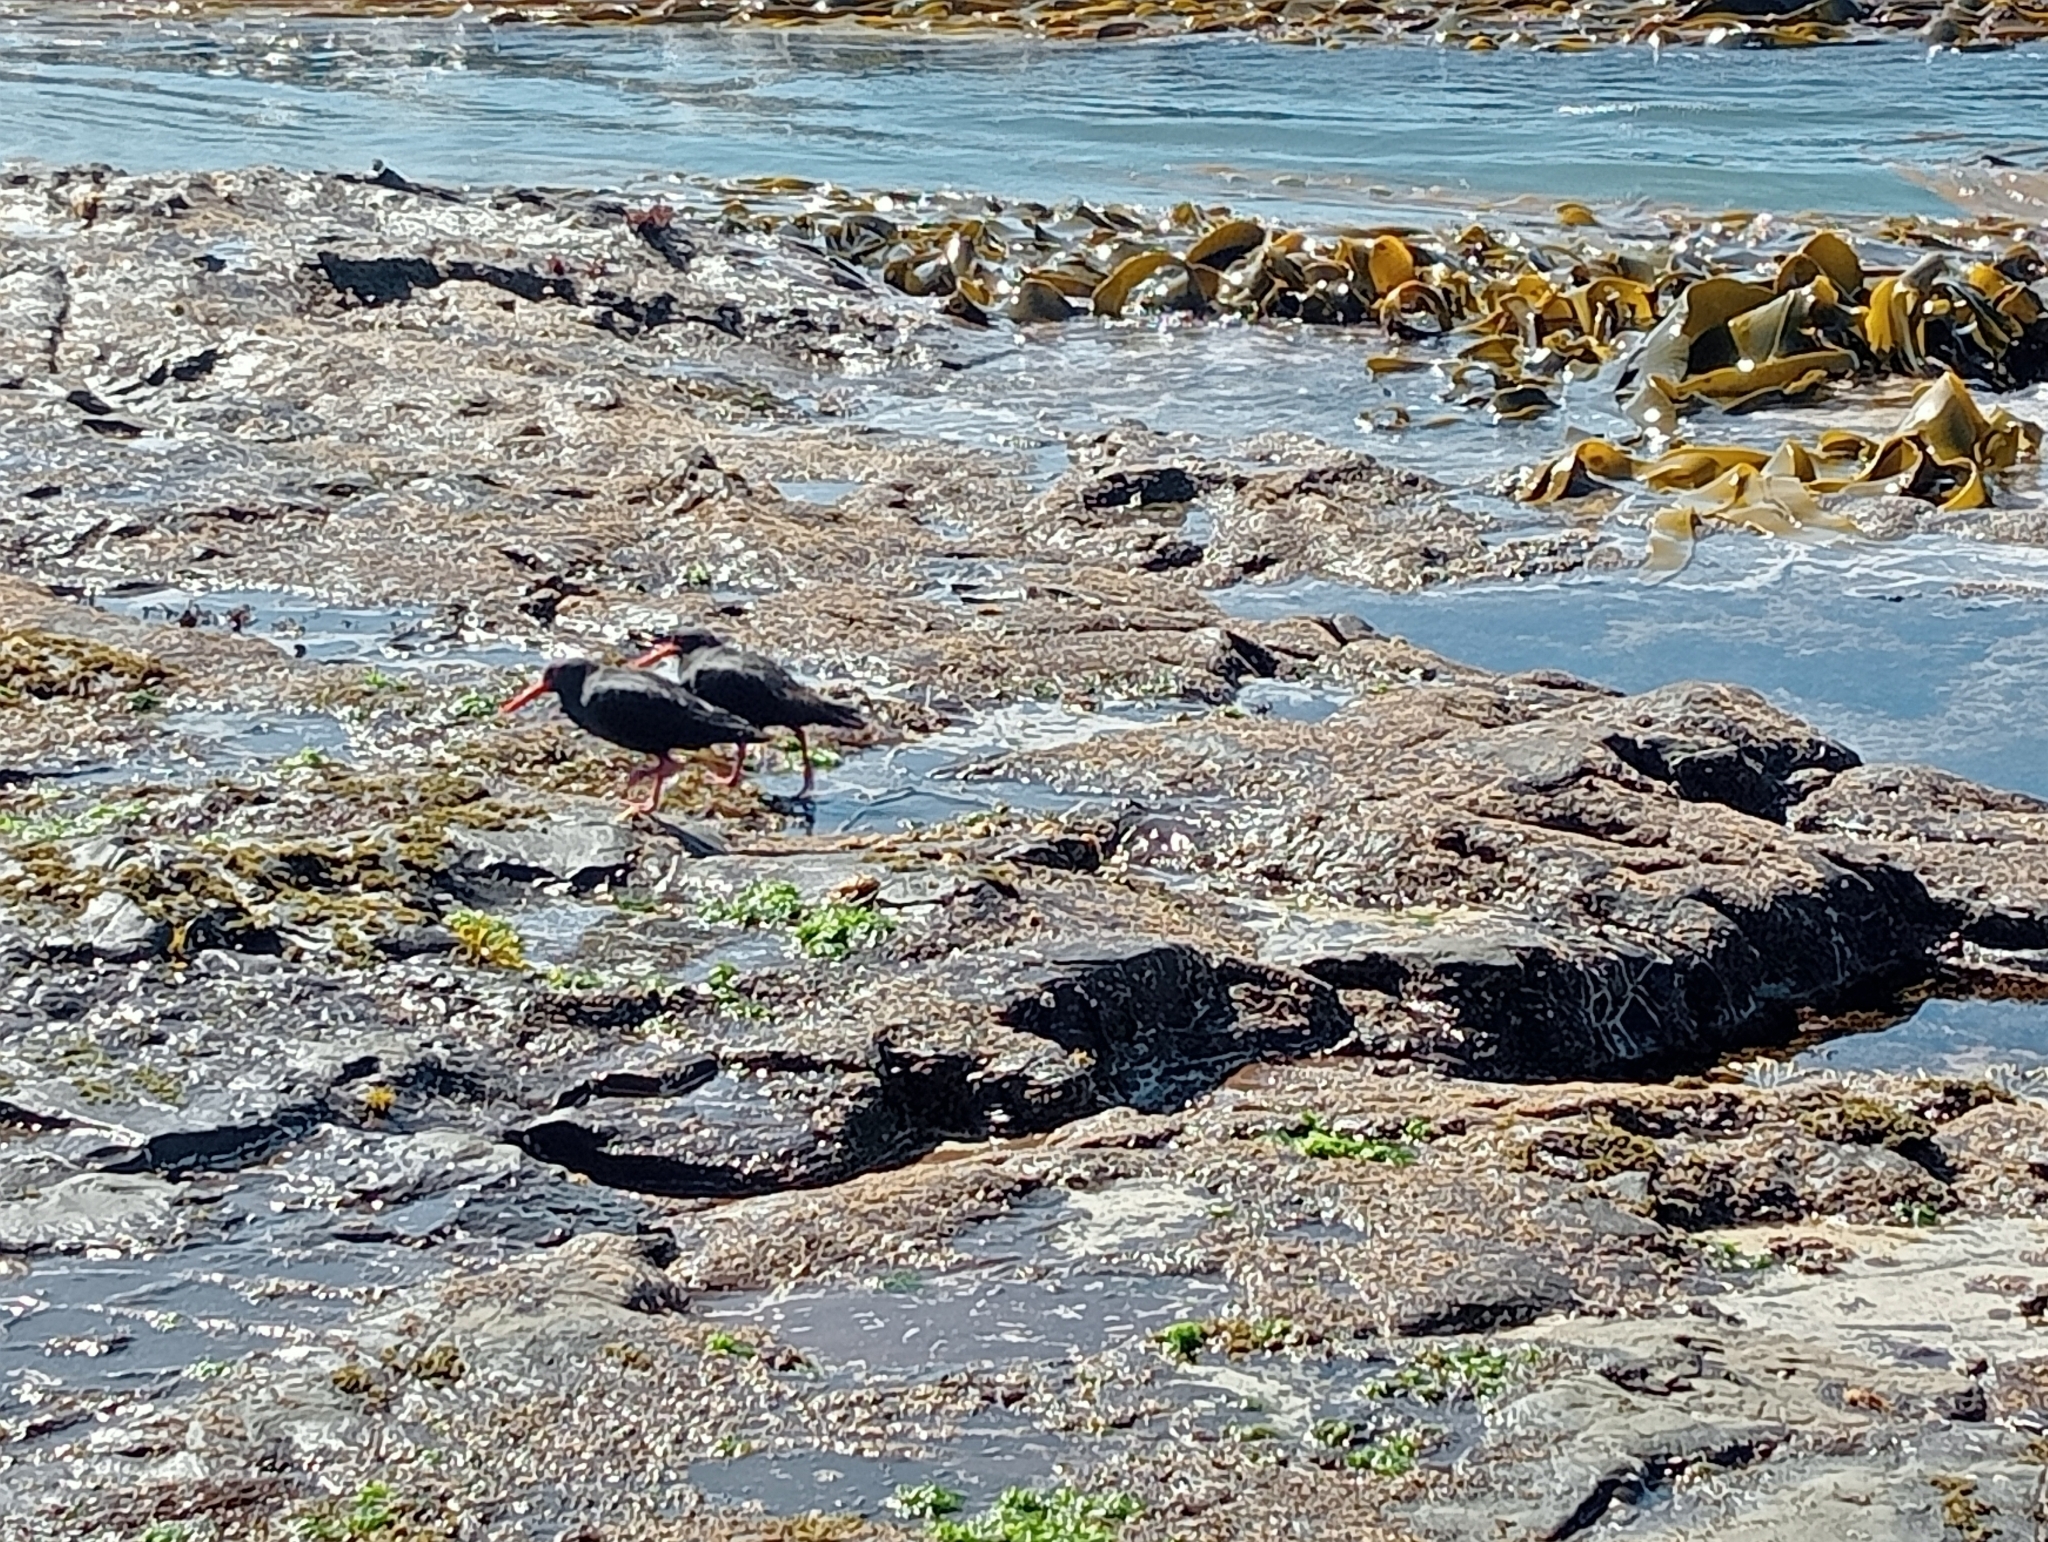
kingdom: Animalia
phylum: Chordata
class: Aves
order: Charadriiformes
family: Haematopodidae
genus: Haematopus
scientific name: Haematopus unicolor
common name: Variable oystercatcher
